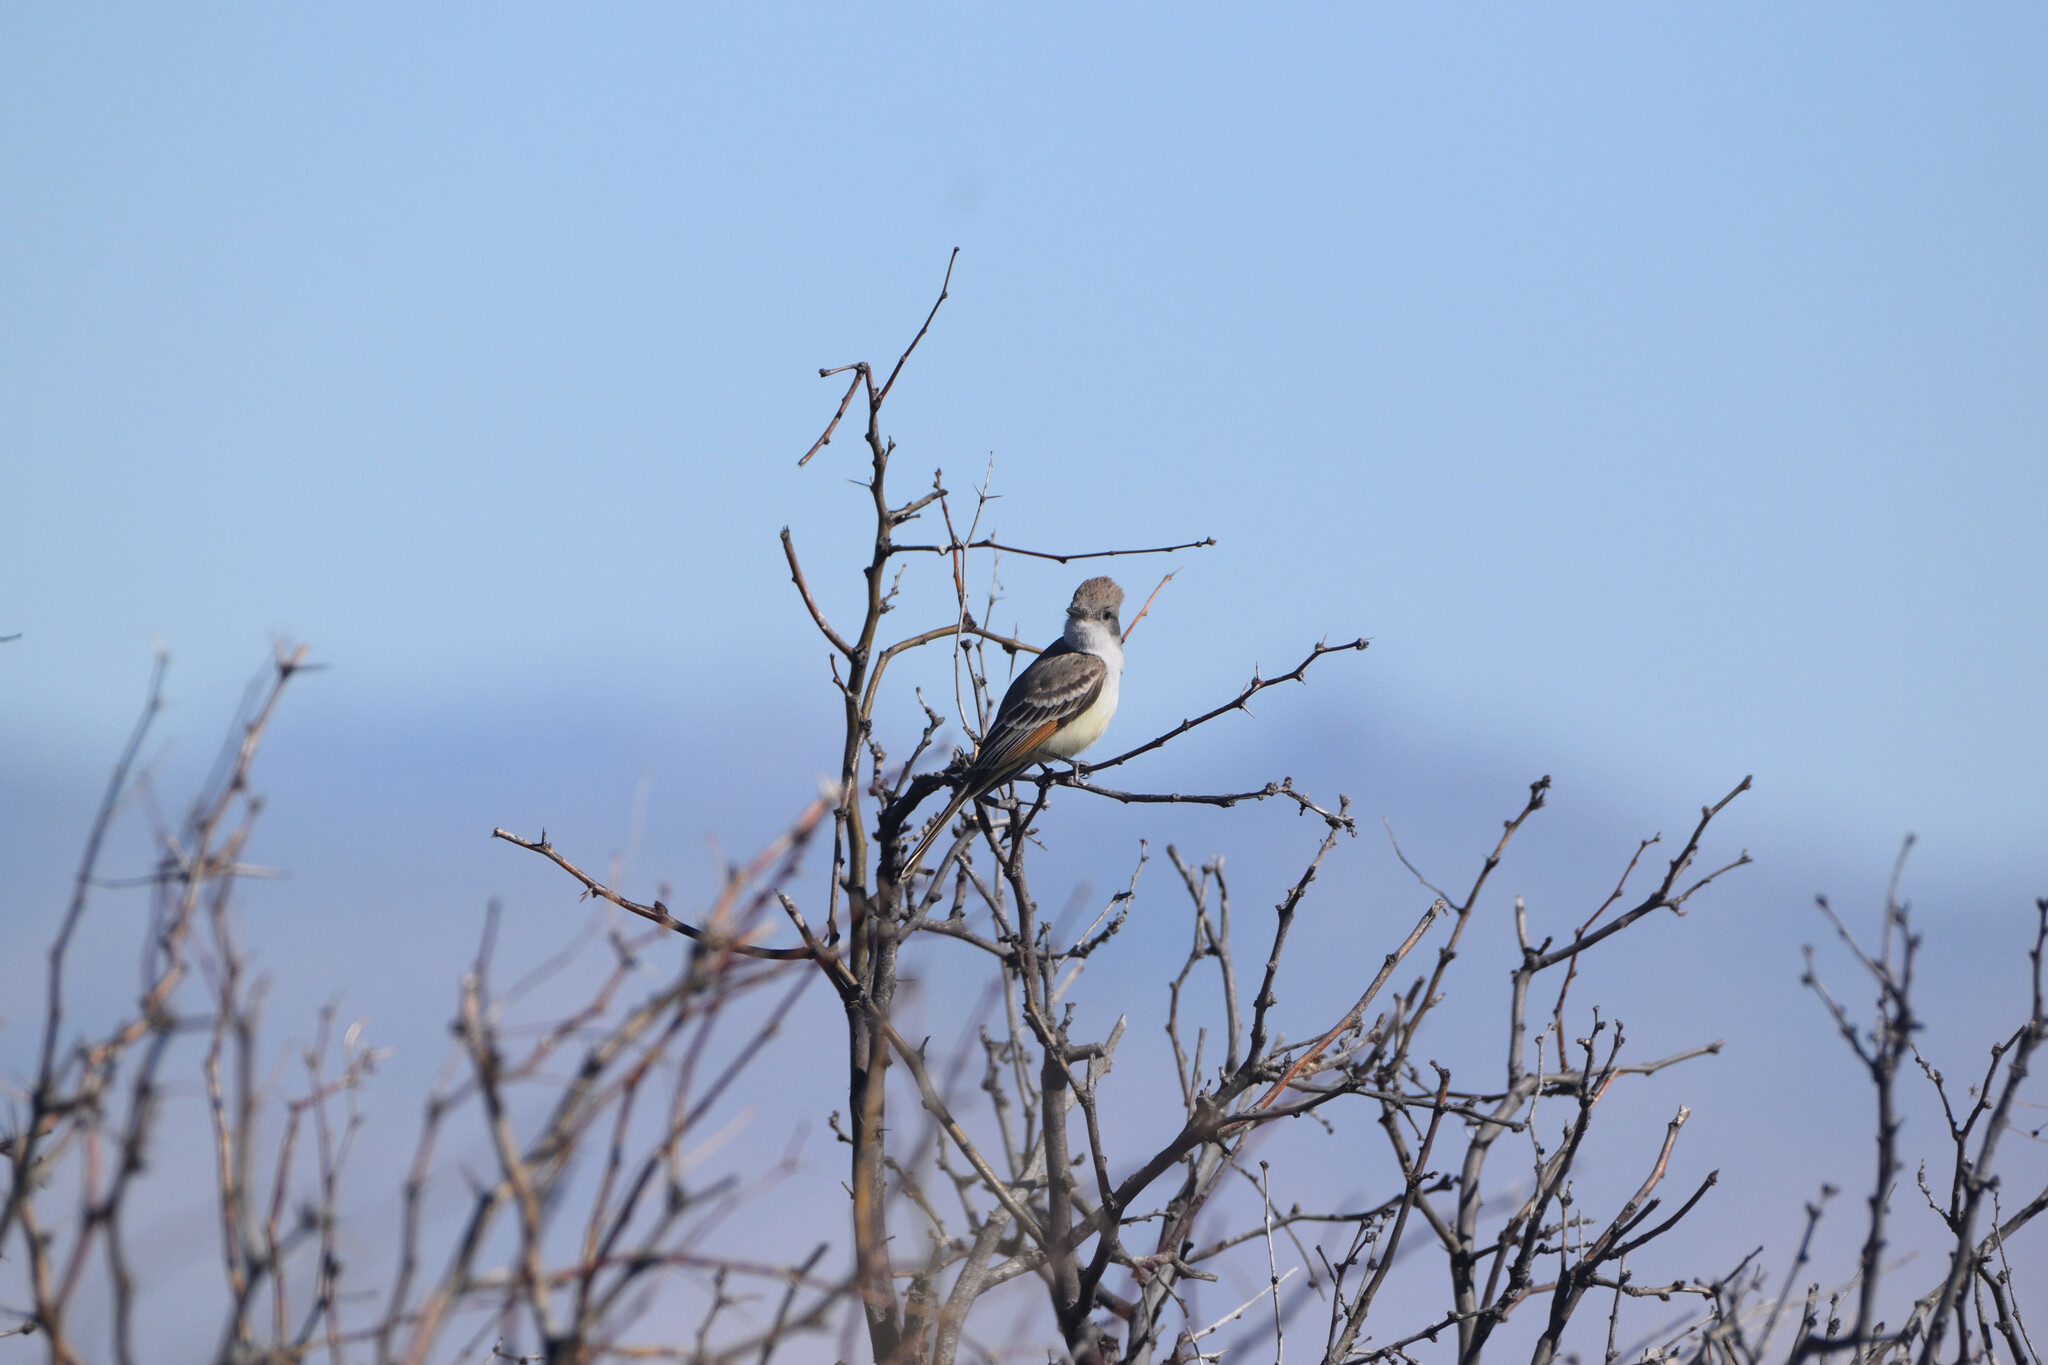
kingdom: Animalia
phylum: Chordata
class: Aves
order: Passeriformes
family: Tyrannidae
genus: Myiarchus
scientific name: Myiarchus cinerascens
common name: Ash-throated flycatcher
